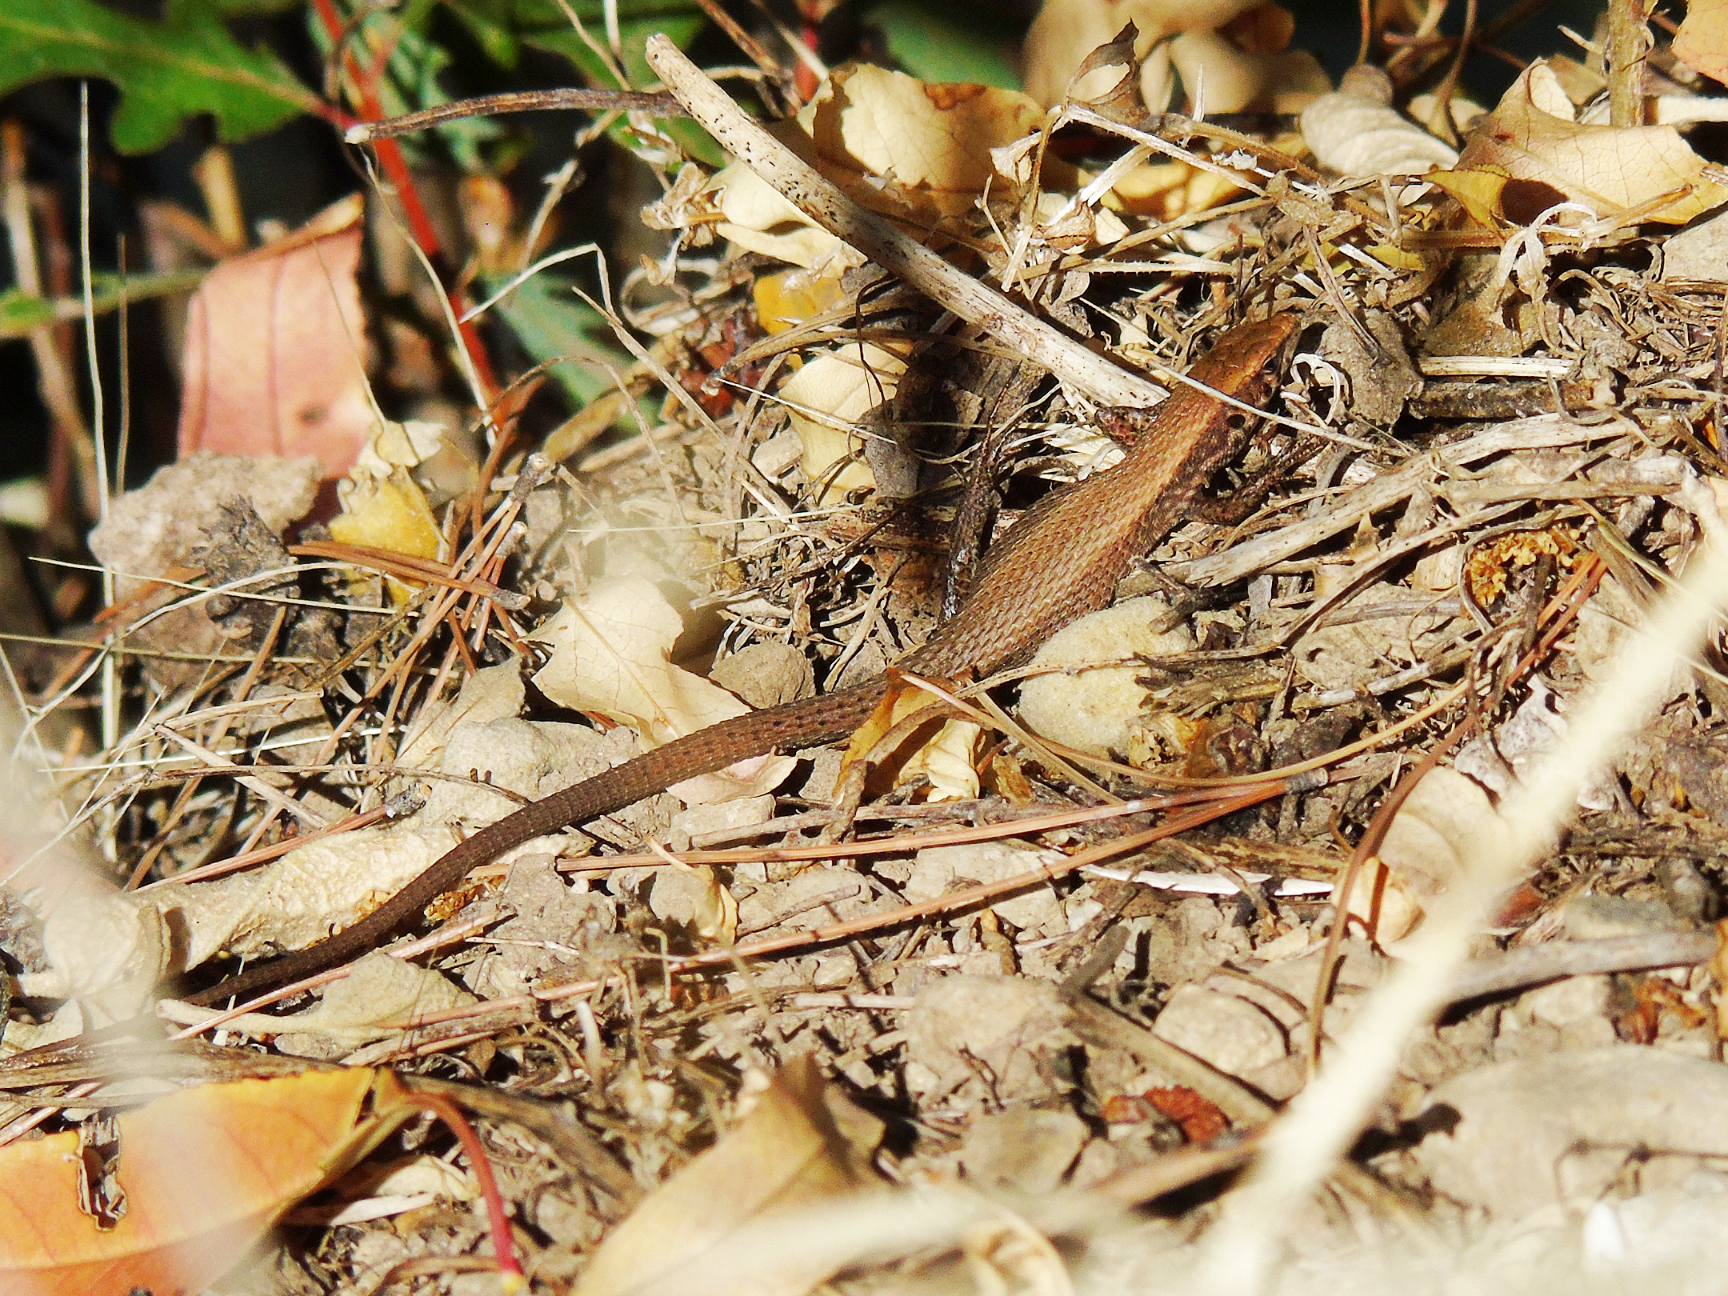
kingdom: Animalia
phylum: Chordata
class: Squamata
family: Lacertidae
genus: Algyroides
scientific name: Algyroides moreoticus
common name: Greek algyroides
